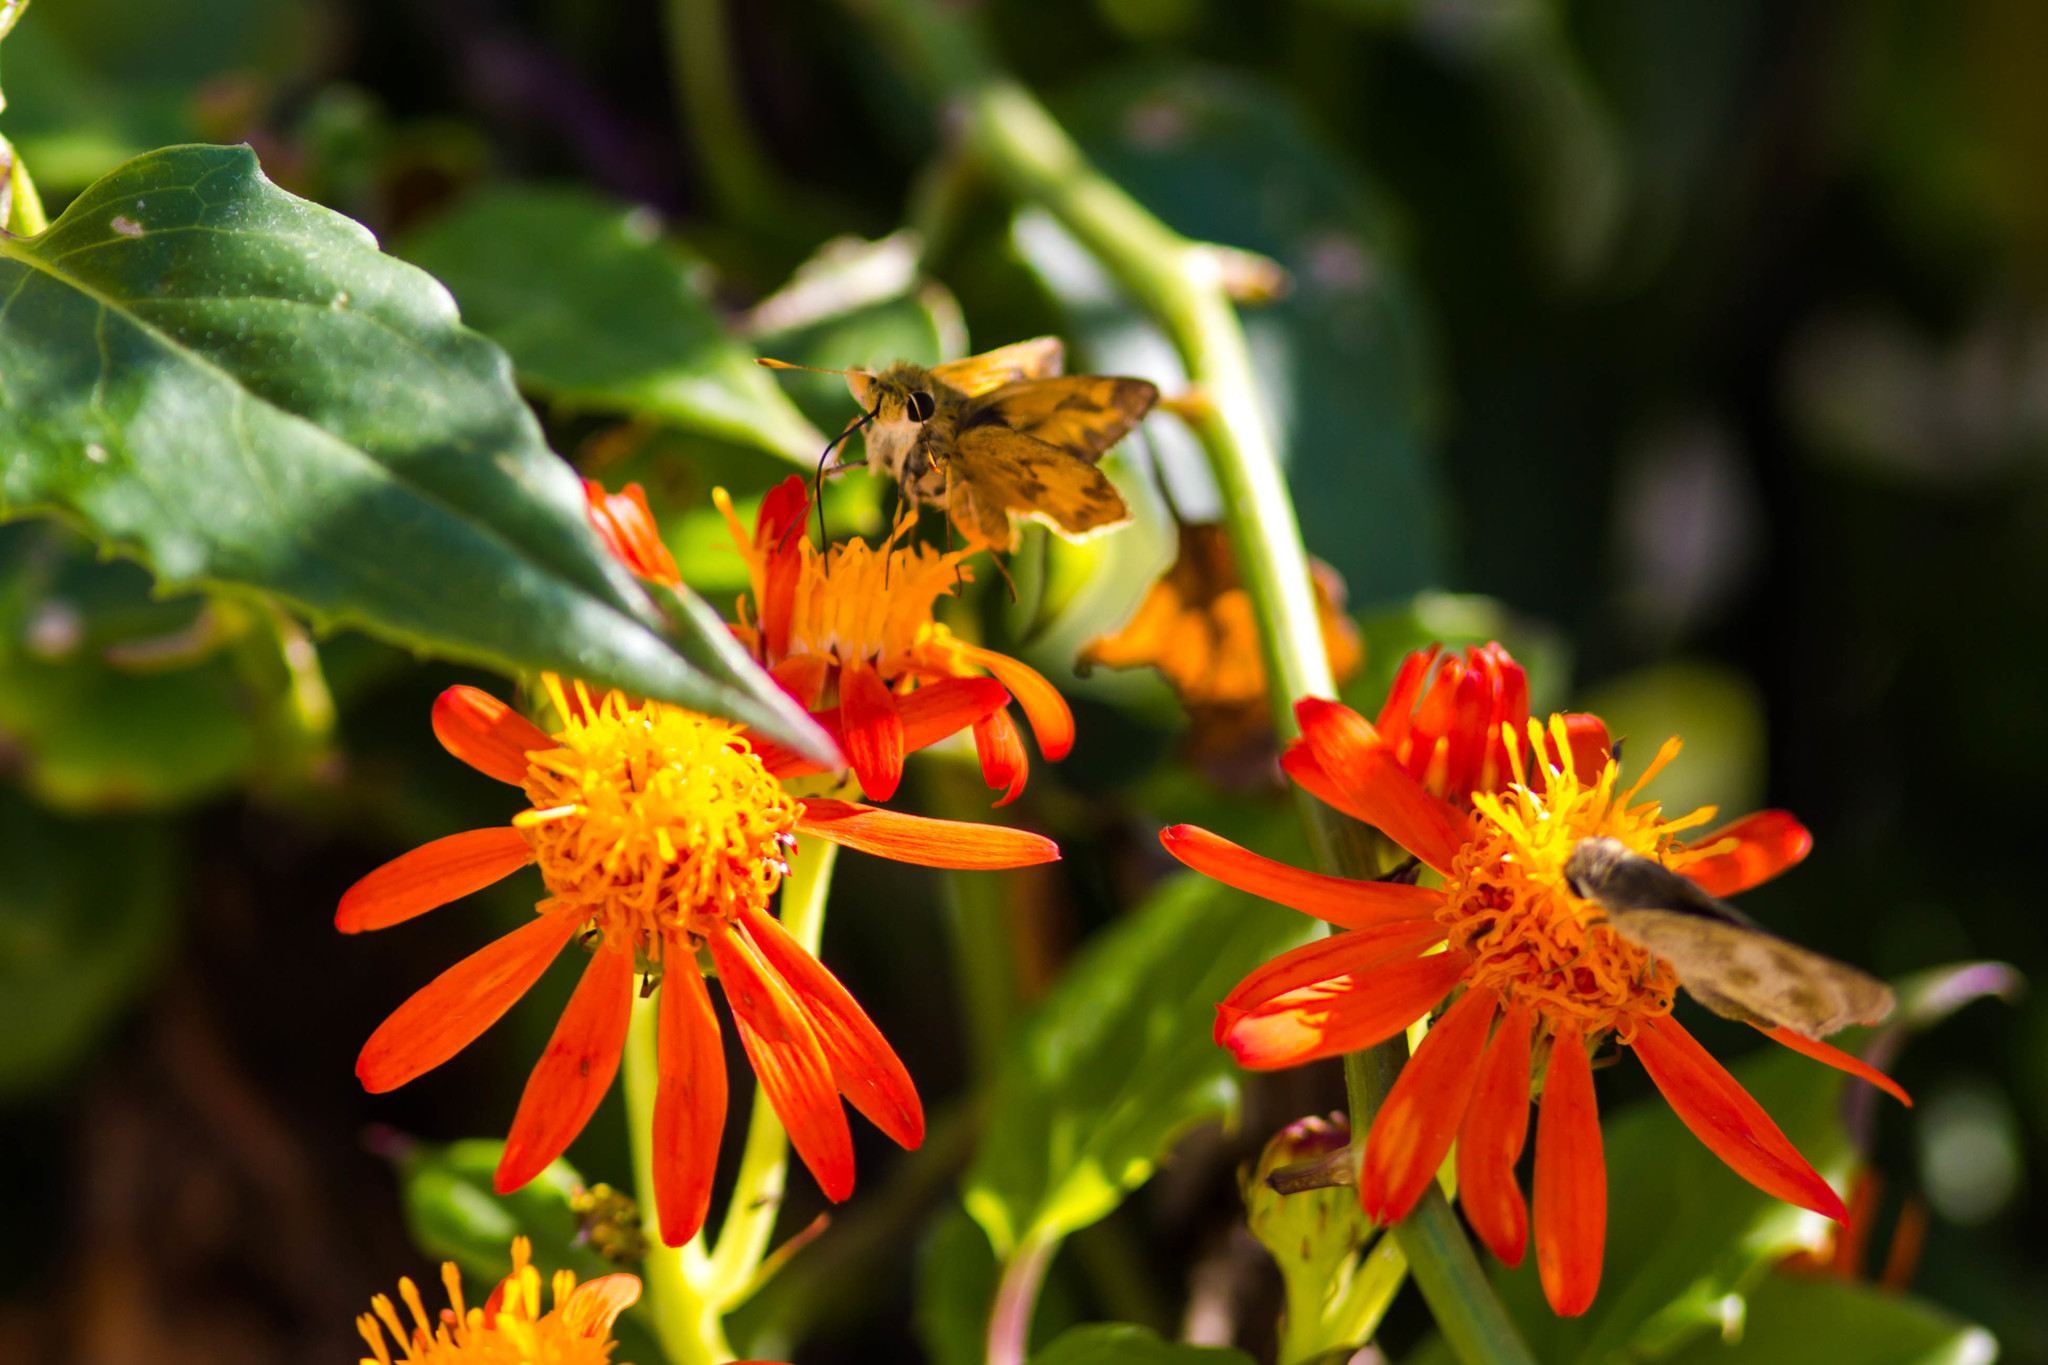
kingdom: Animalia
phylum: Arthropoda
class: Insecta
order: Lepidoptera
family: Hesperiidae
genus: Polites
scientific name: Polites vibex
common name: Whirlabout
